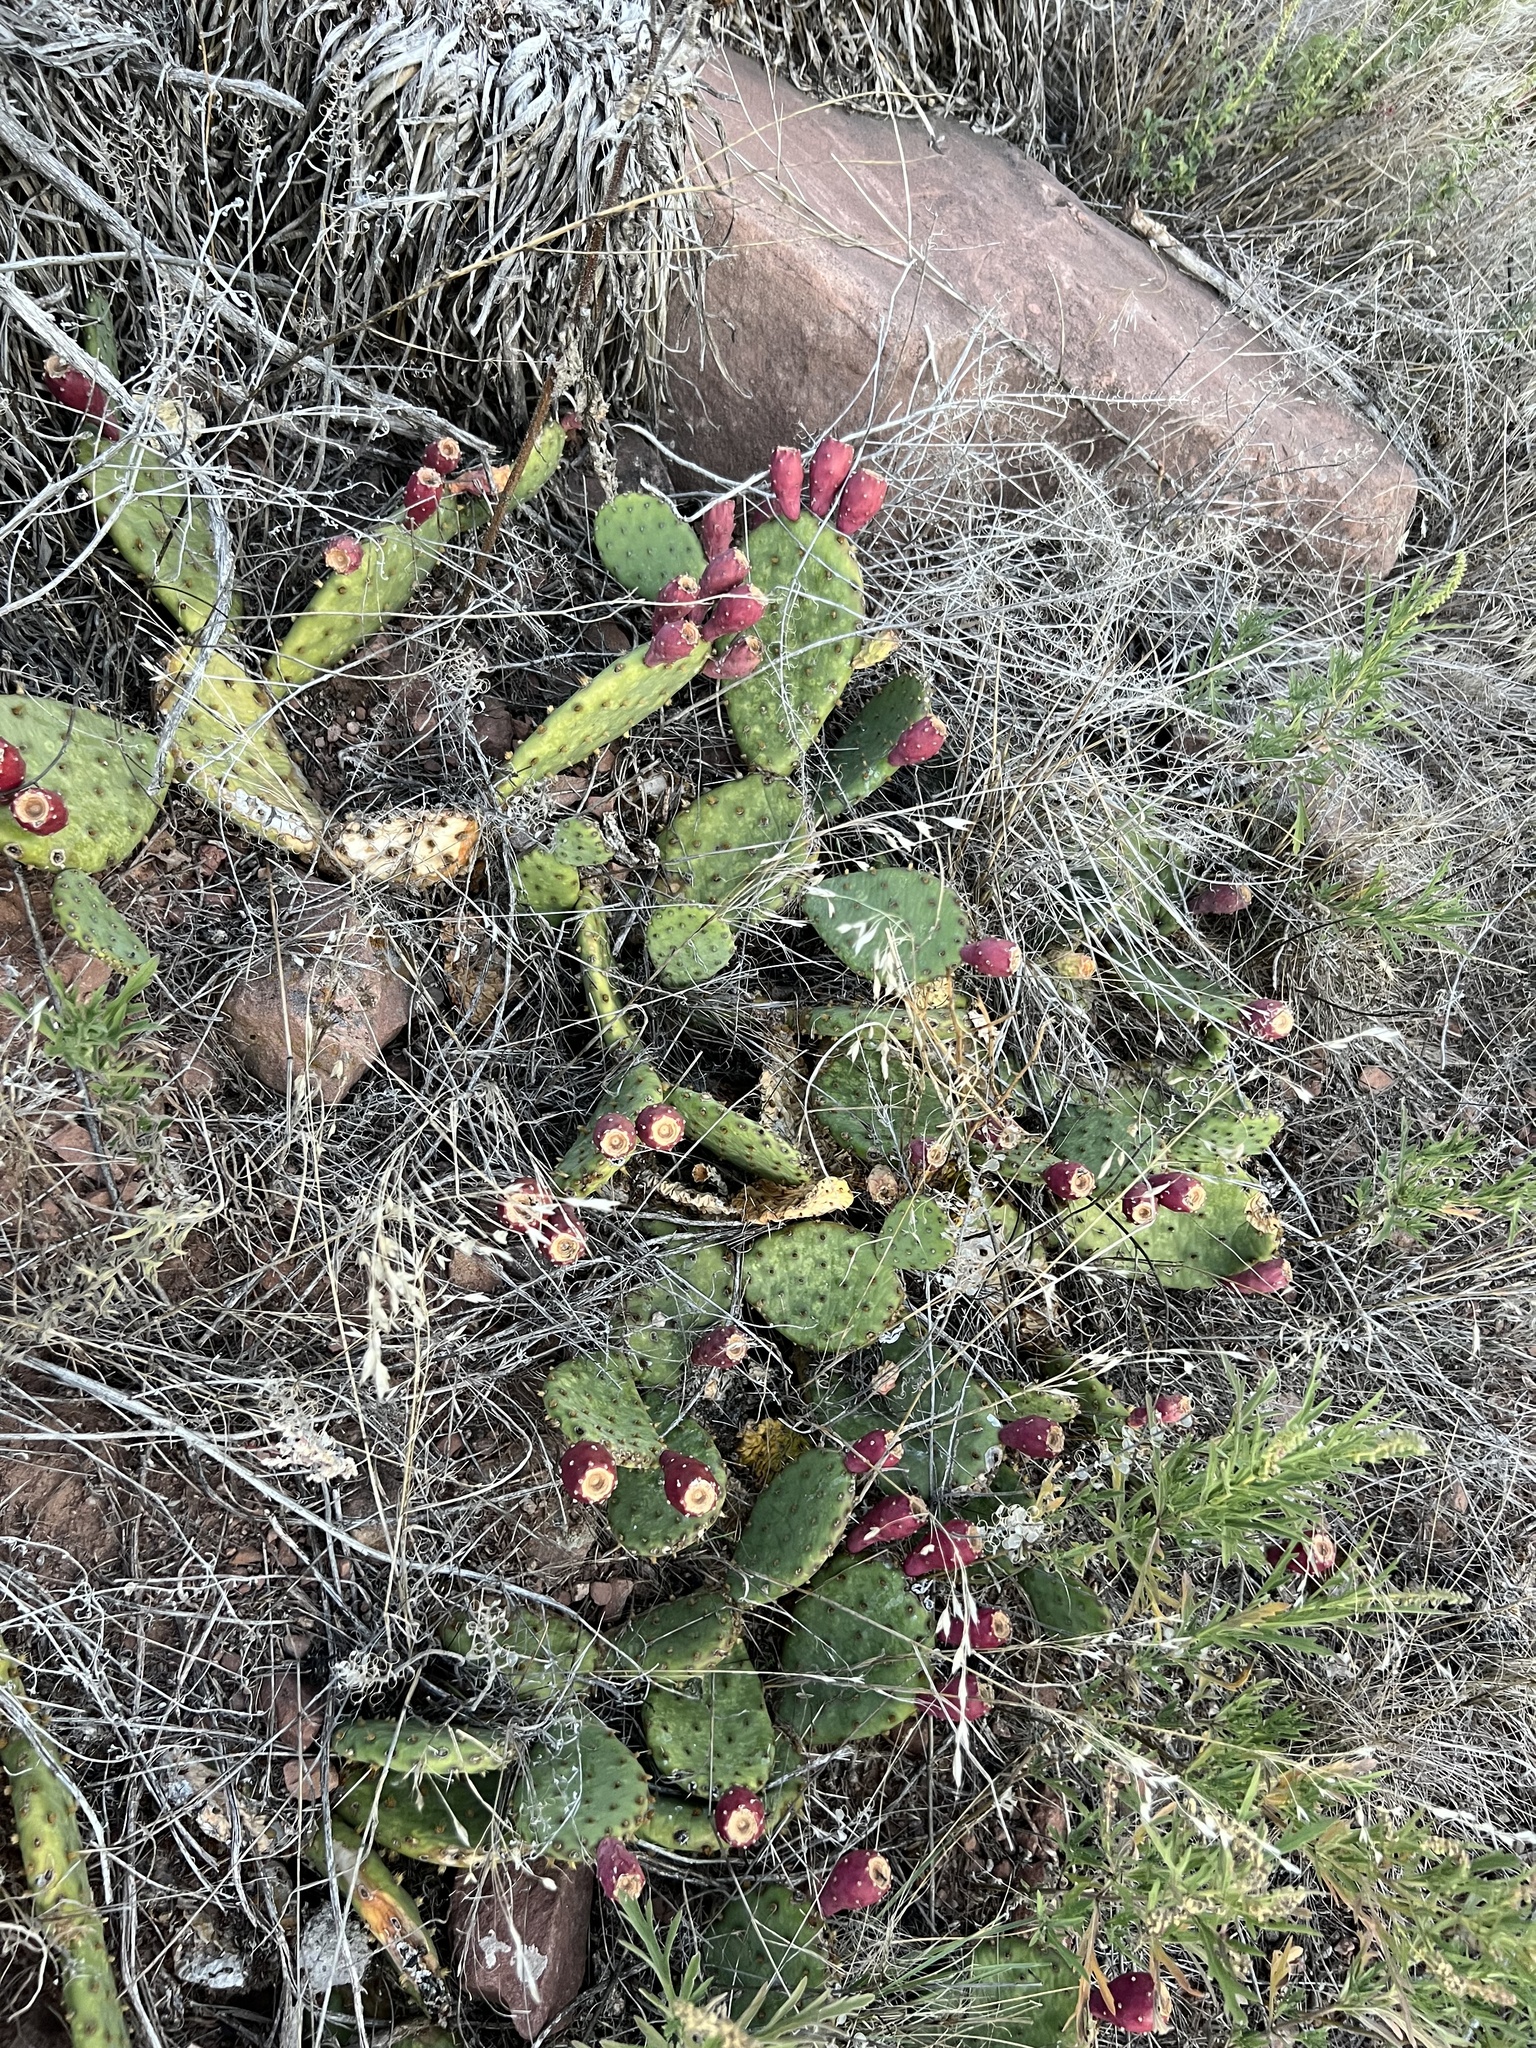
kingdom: Plantae
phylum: Tracheophyta
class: Magnoliopsida
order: Caryophyllales
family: Cactaceae
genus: Opuntia
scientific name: Opuntia macrorhiza
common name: Grassland pricklypear
